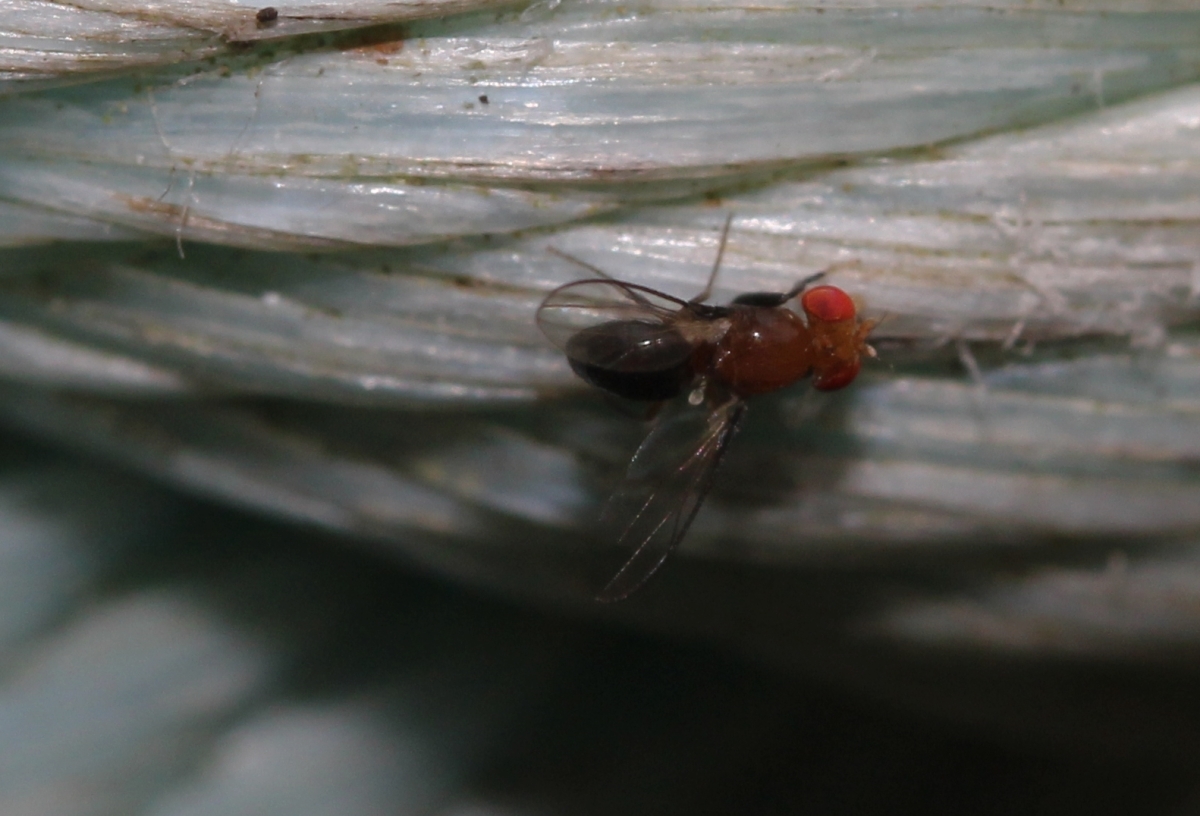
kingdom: Animalia
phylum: Arthropoda
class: Insecta
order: Diptera
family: Drosophilidae
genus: Chymomyza
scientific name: Chymomyza
